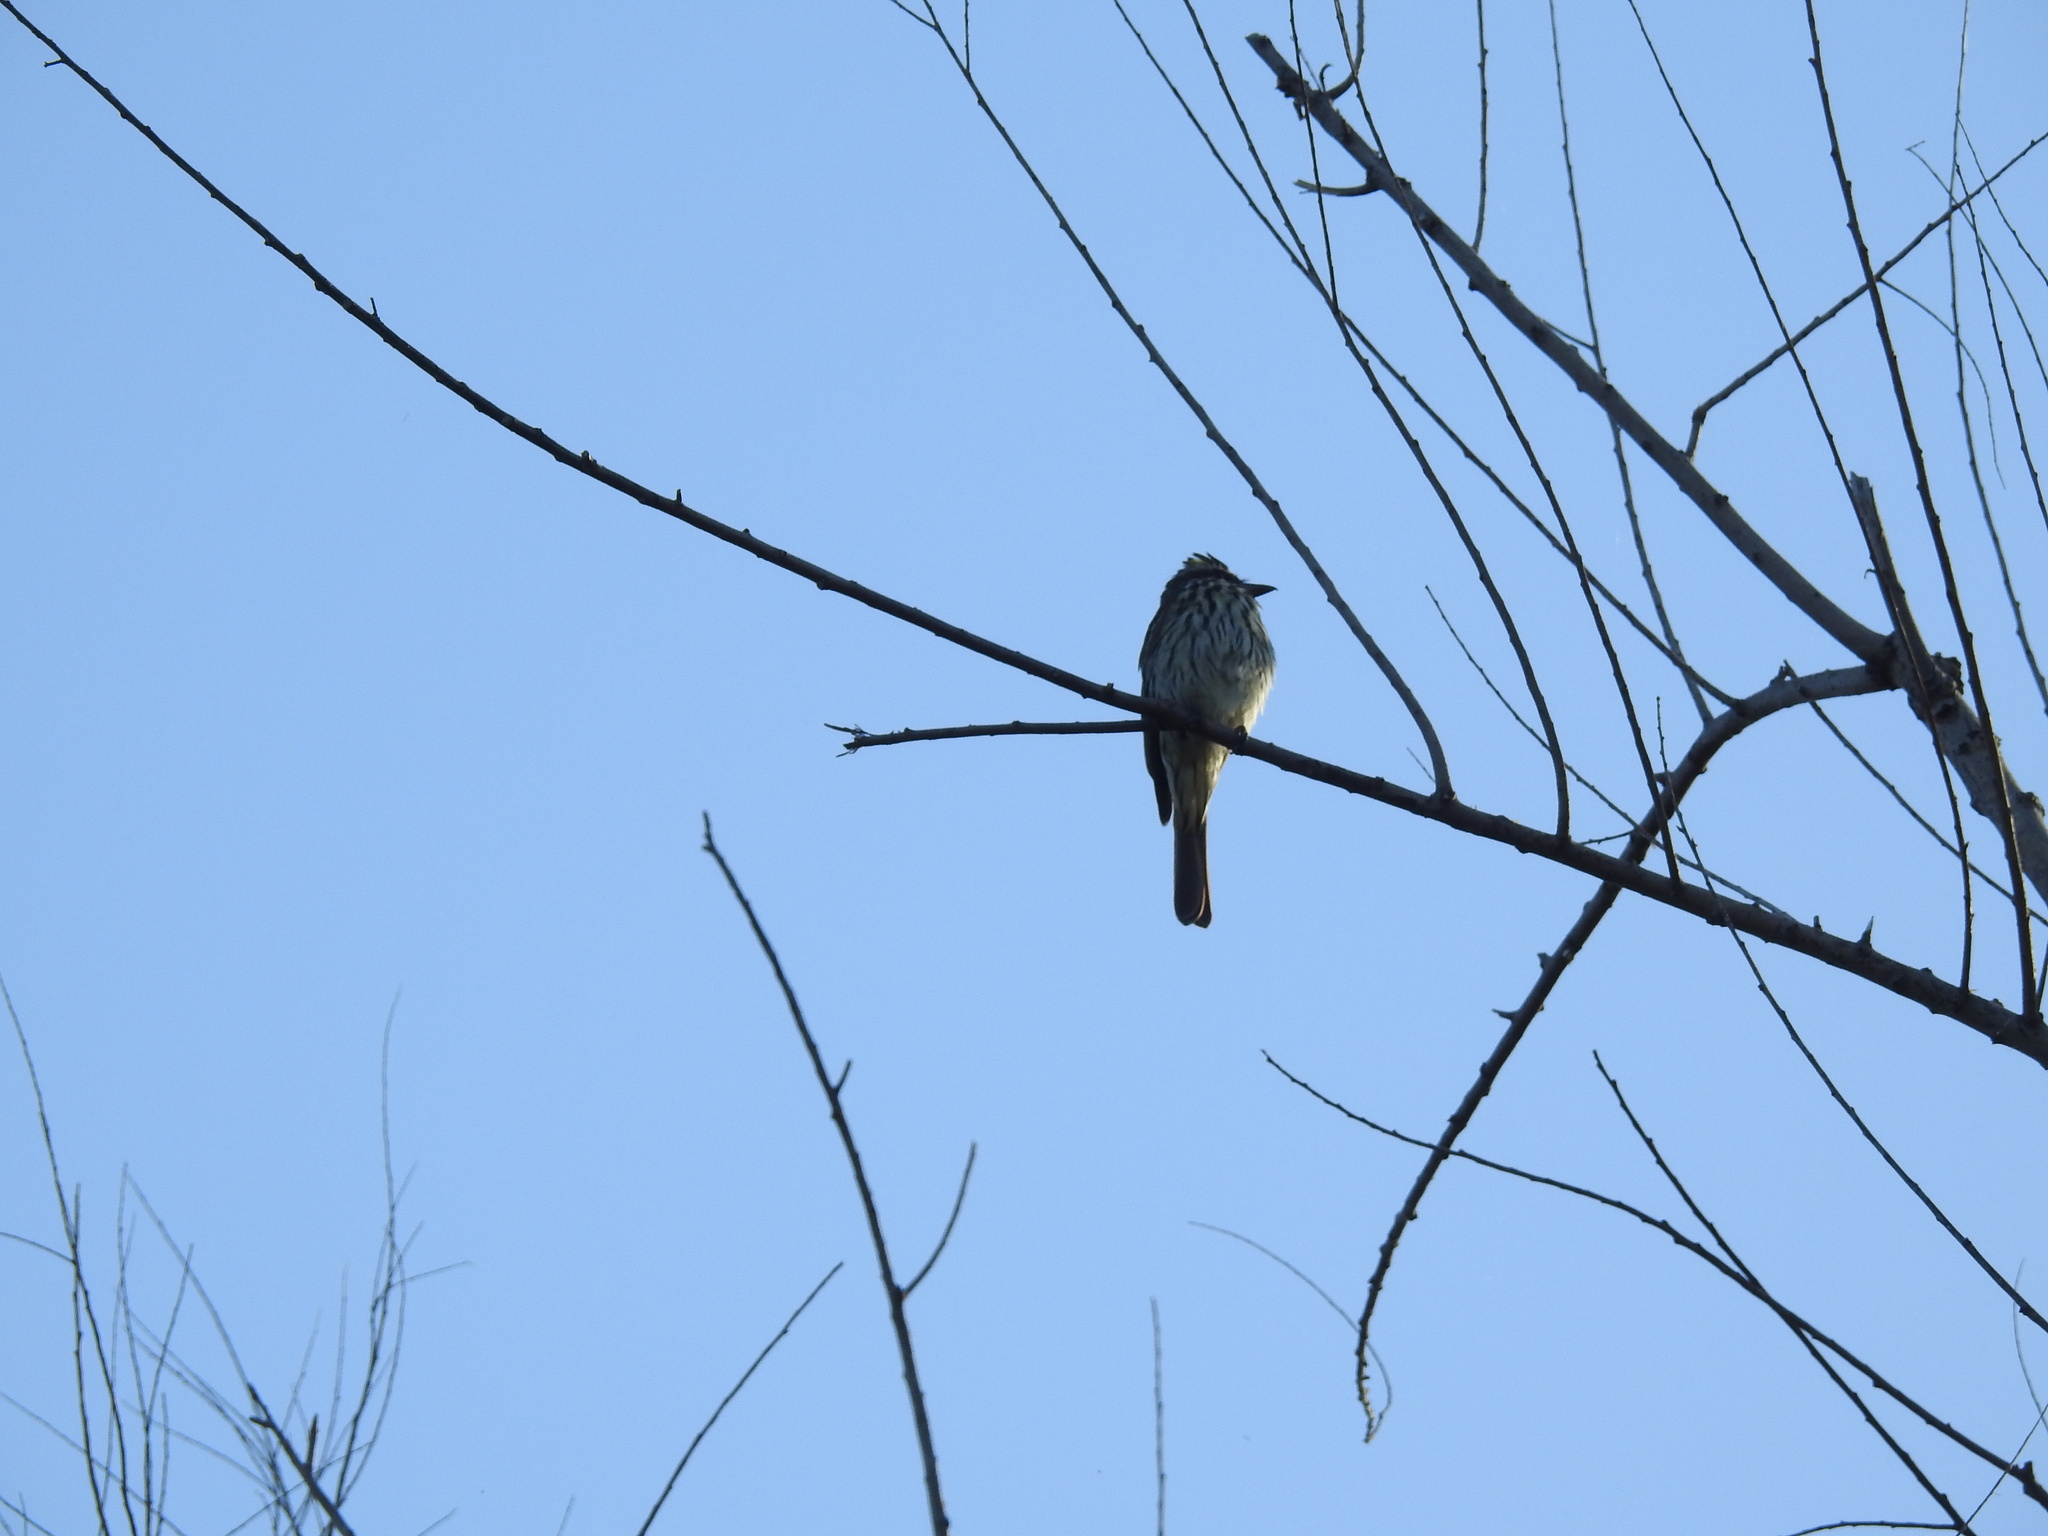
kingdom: Animalia
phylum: Chordata
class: Aves
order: Passeriformes
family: Tyrannidae
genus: Myiodynastes
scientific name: Myiodynastes maculatus
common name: Streaked flycatcher
